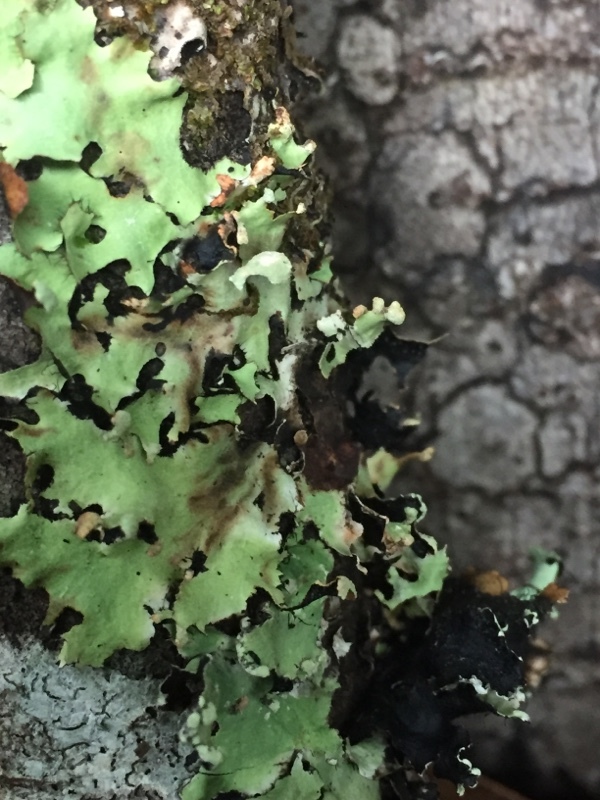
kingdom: Fungi
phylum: Ascomycota
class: Lecanoromycetes
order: Peltigerales
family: Lobariaceae
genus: Lobaria
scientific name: Lobaria pulmonaria
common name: Lungwort
